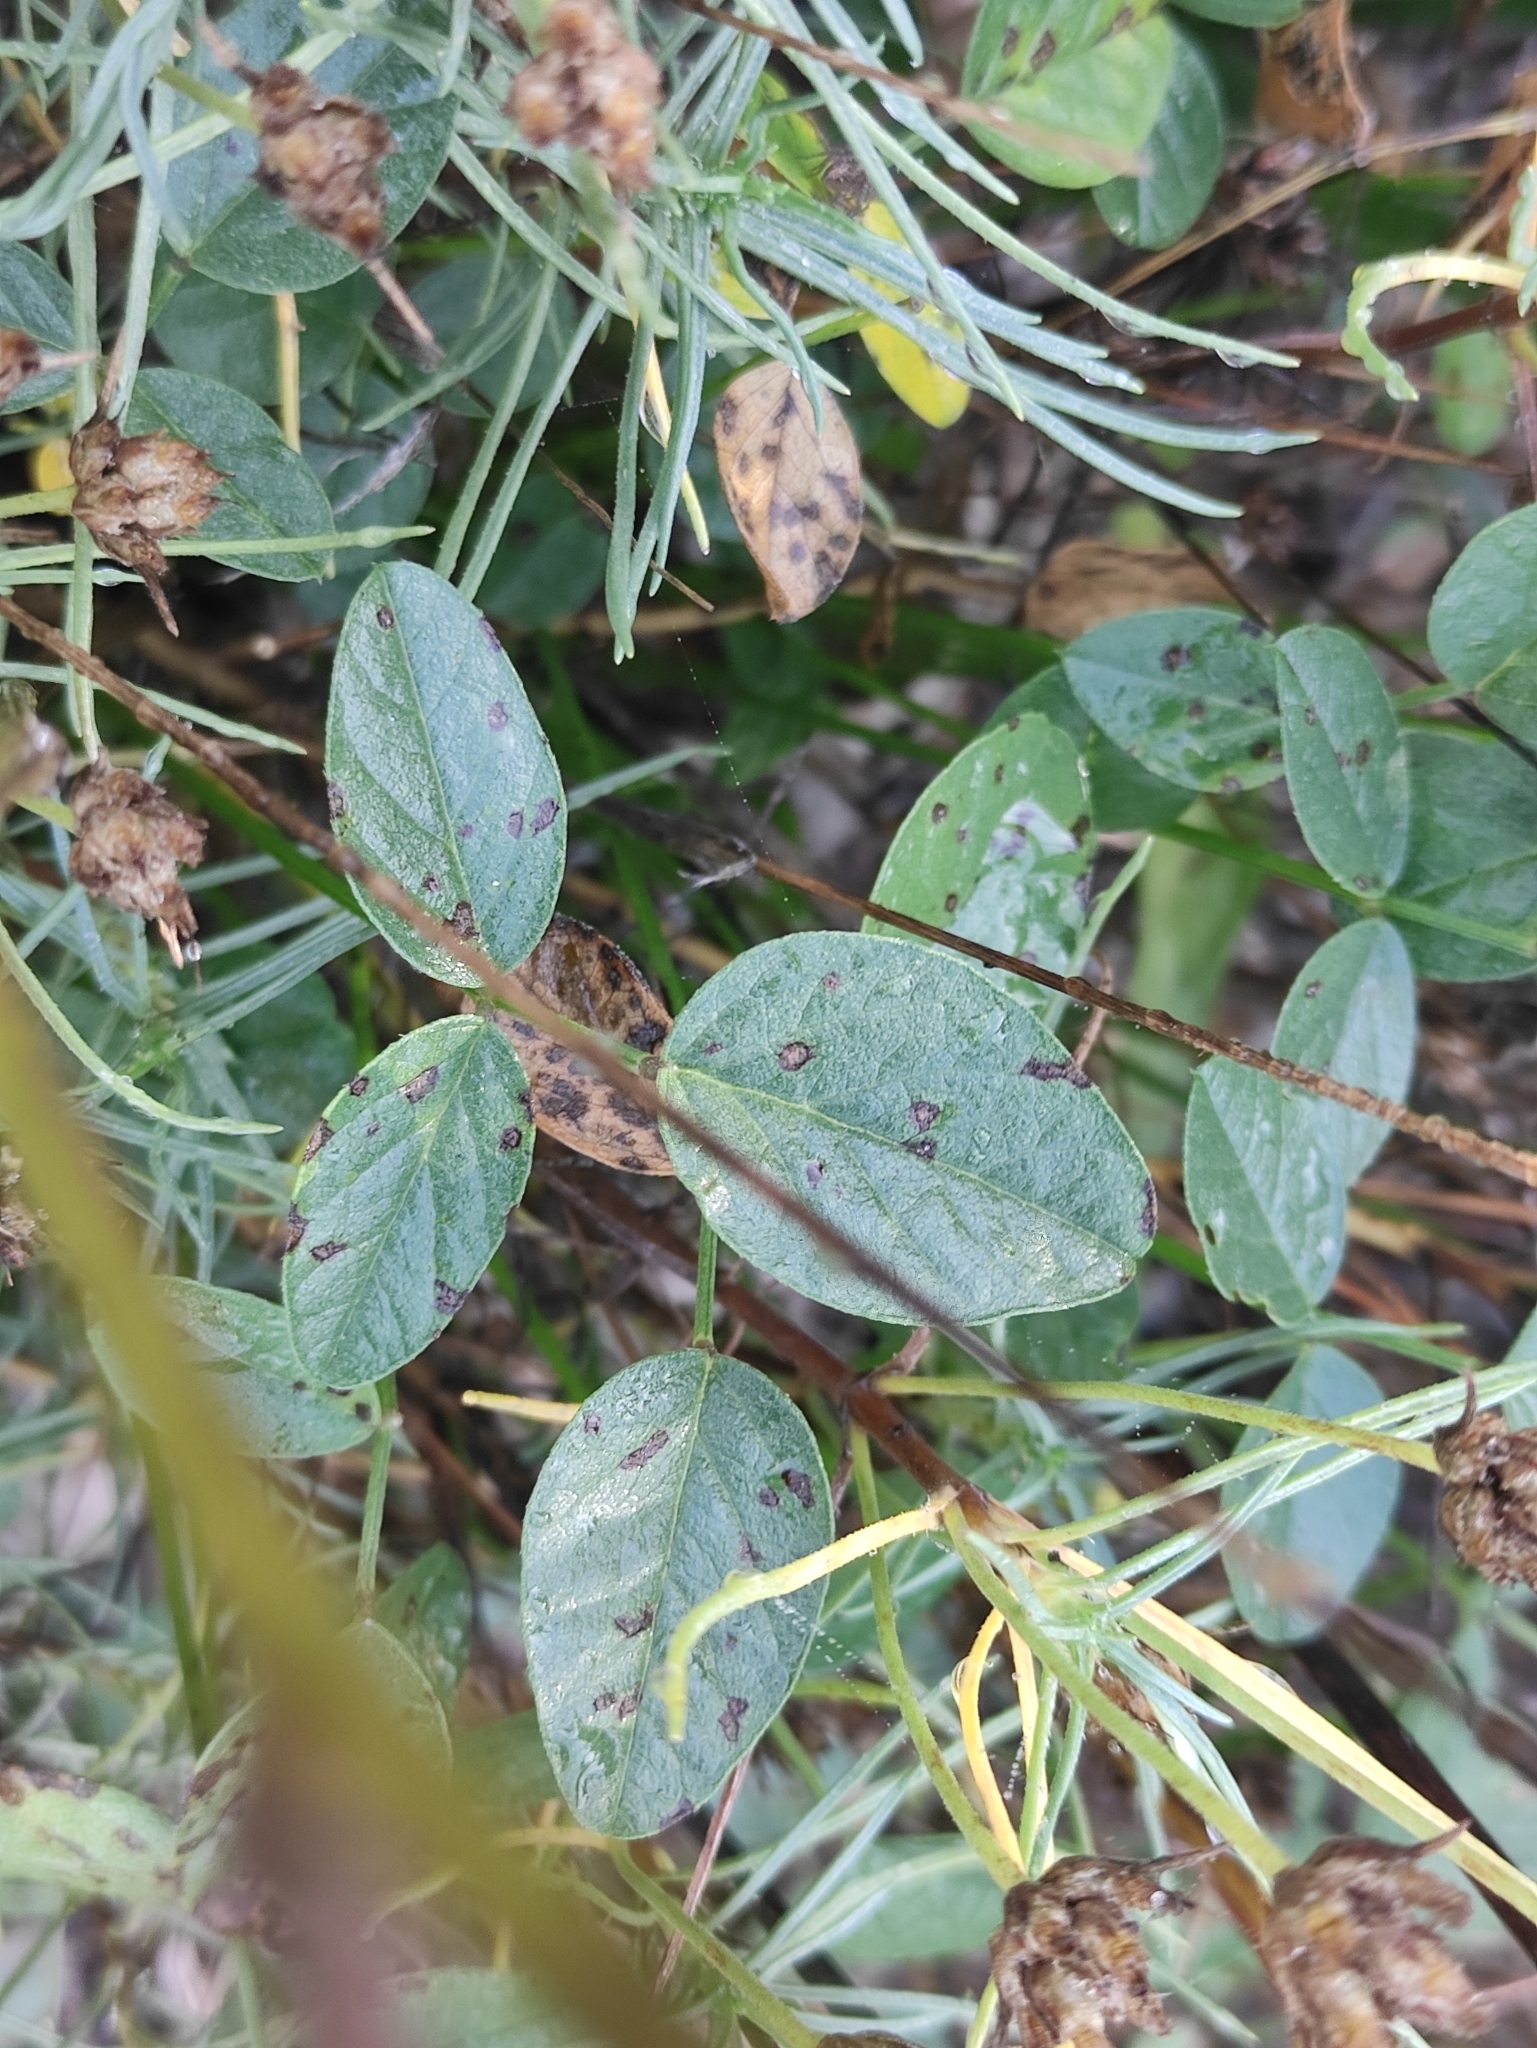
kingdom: Plantae
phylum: Tracheophyta
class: Magnoliopsida
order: Fabales
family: Fabaceae
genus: Bituminaria
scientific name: Bituminaria bituminosa
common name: Arabian pea
